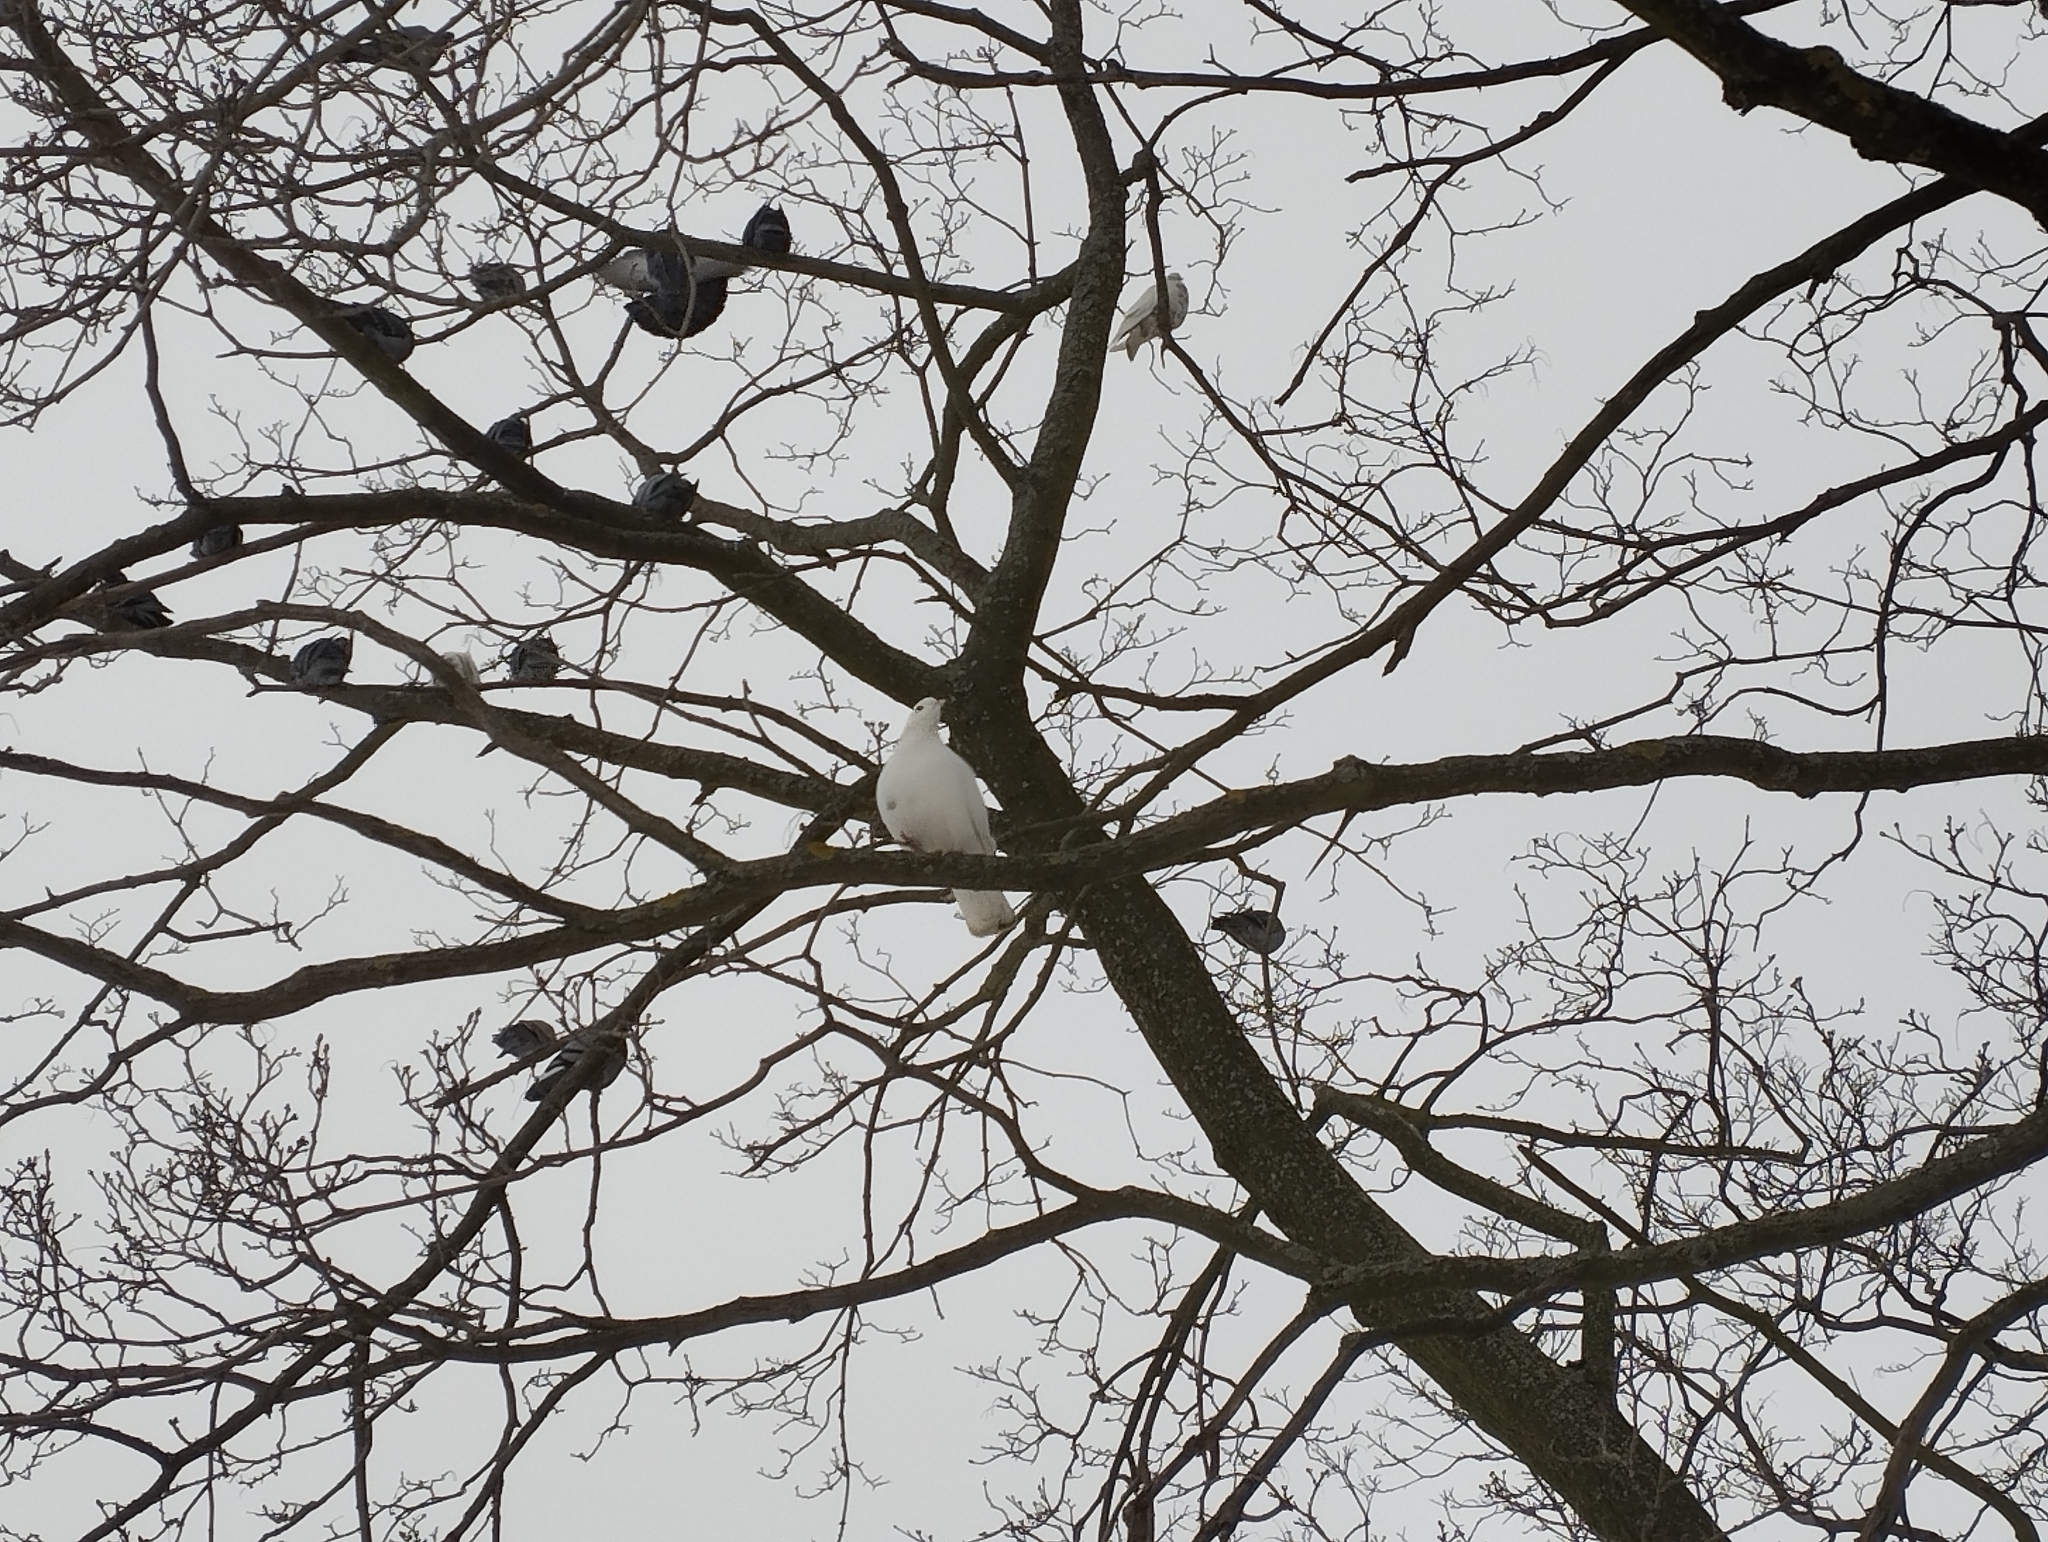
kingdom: Animalia
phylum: Chordata
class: Aves
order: Columbiformes
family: Columbidae
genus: Columba
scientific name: Columba livia
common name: Rock pigeon
